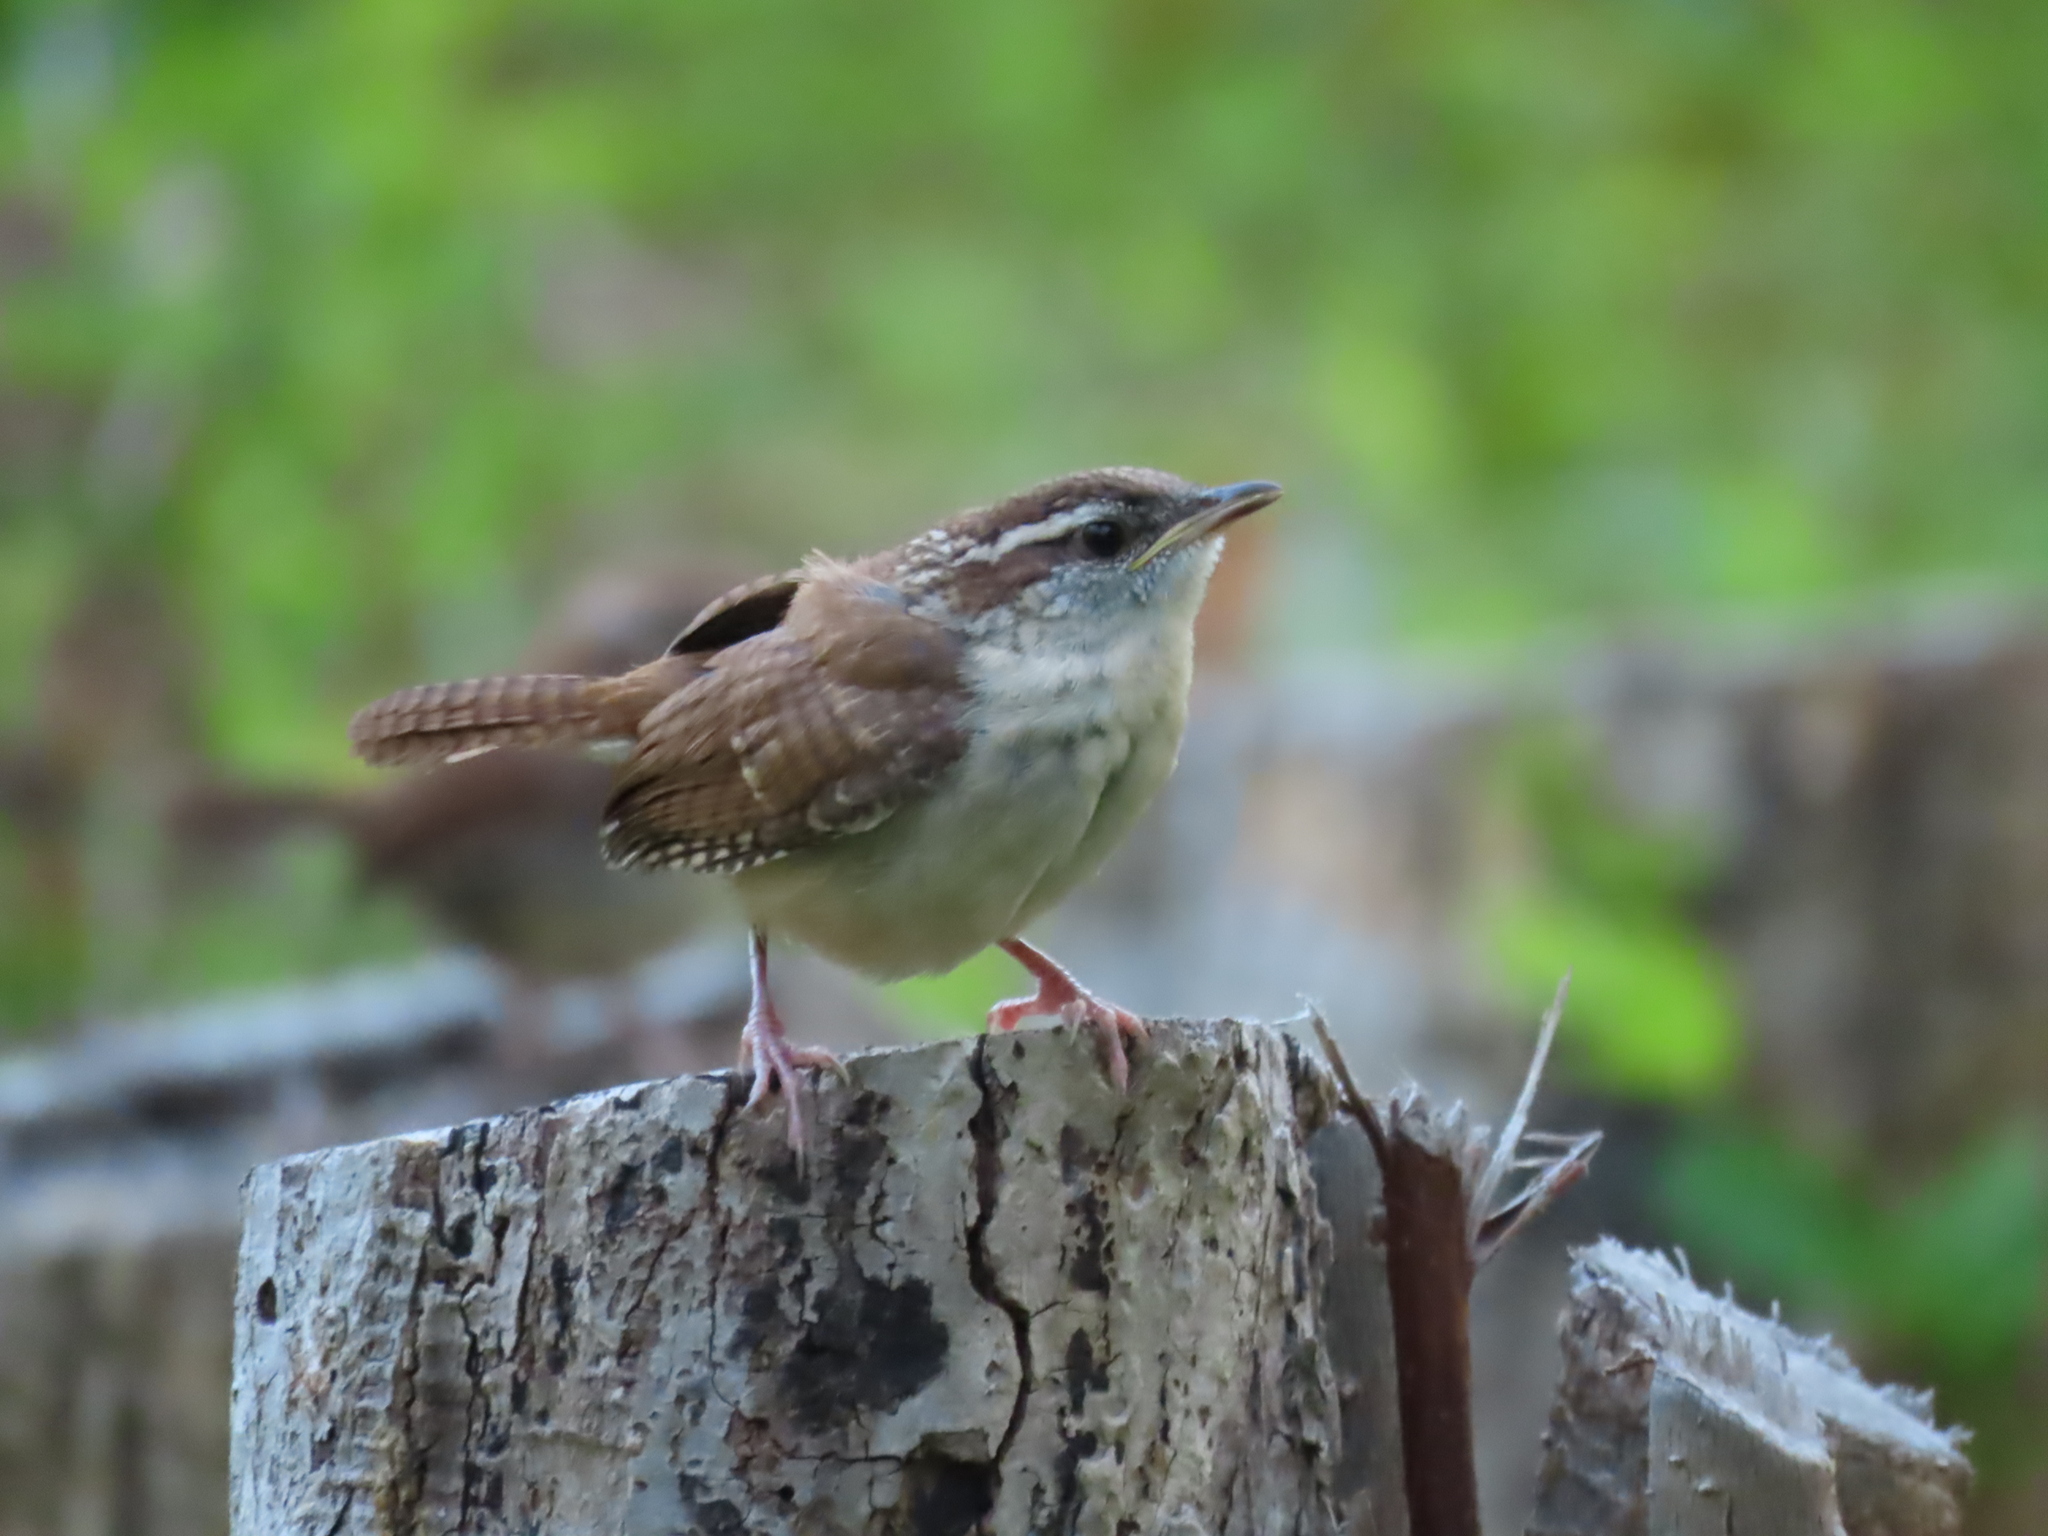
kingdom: Animalia
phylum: Chordata
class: Aves
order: Passeriformes
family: Troglodytidae
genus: Thryothorus
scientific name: Thryothorus ludovicianus
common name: Carolina wren
